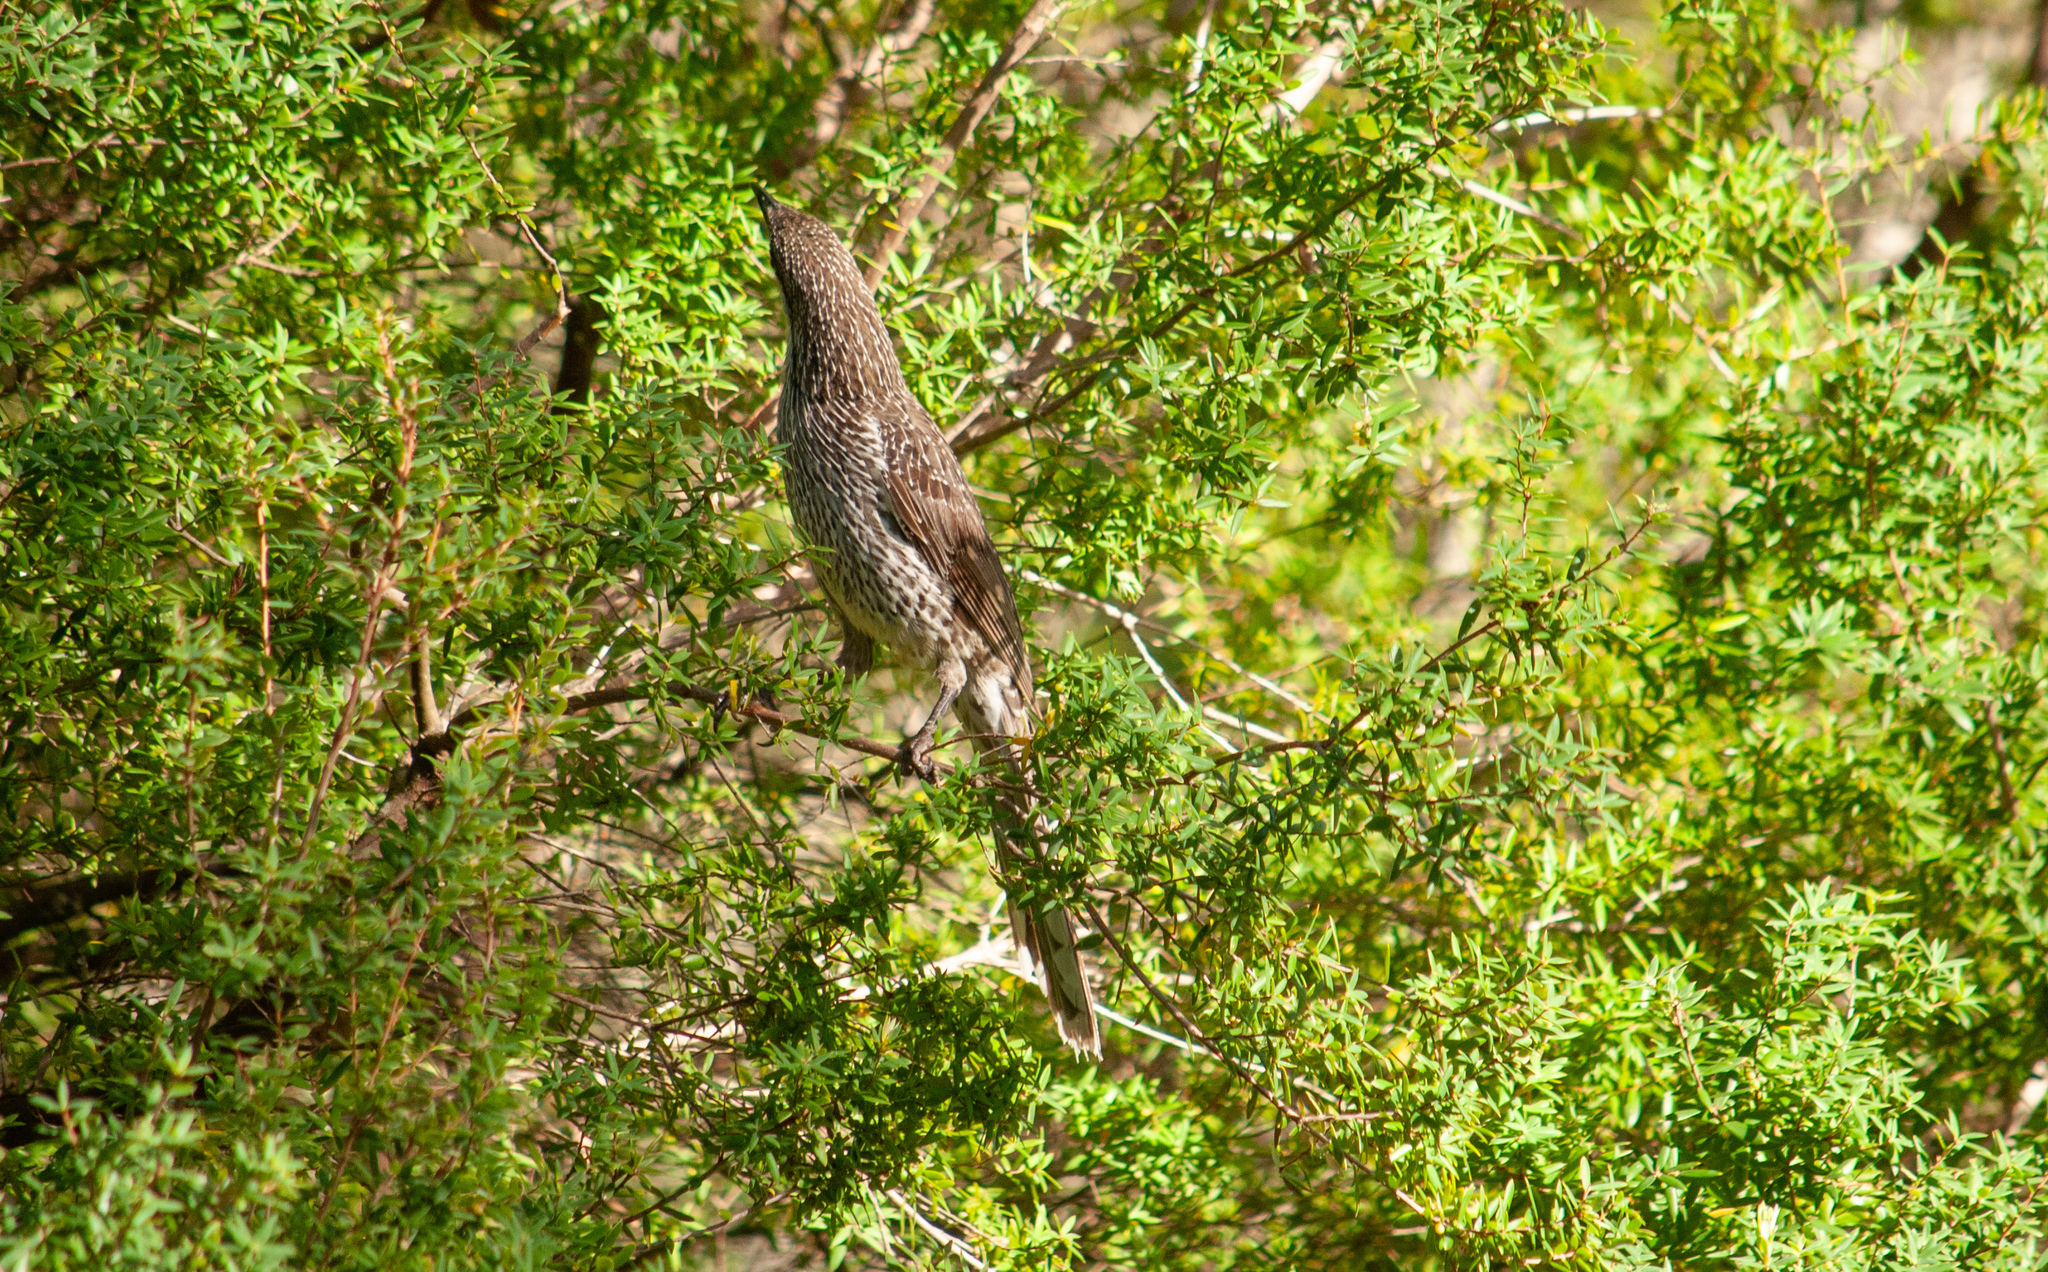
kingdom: Animalia
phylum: Chordata
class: Aves
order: Passeriformes
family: Meliphagidae
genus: Anthochaera
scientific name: Anthochaera chrysoptera
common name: Little wattlebird
